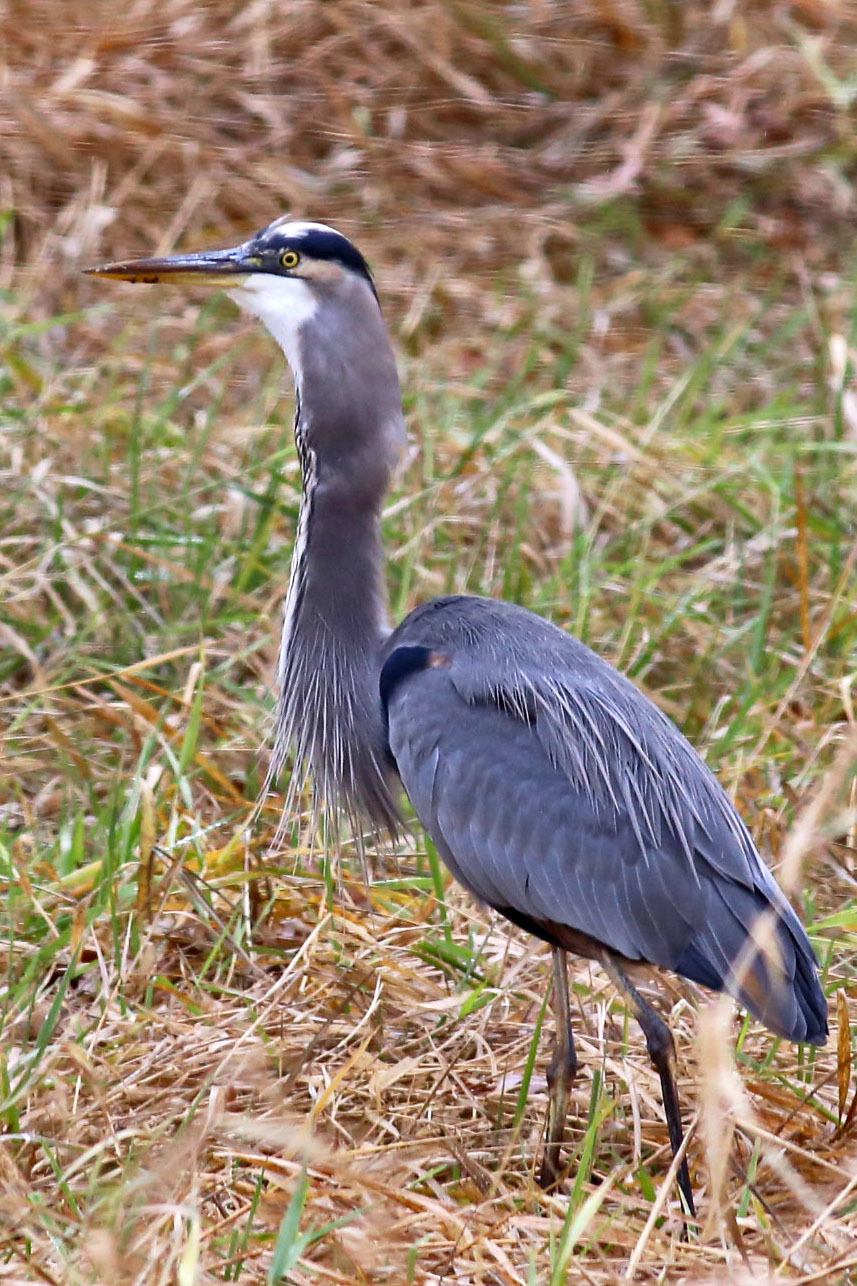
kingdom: Animalia
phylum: Chordata
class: Aves
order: Pelecaniformes
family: Ardeidae
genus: Ardea
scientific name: Ardea herodias
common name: Great blue heron
